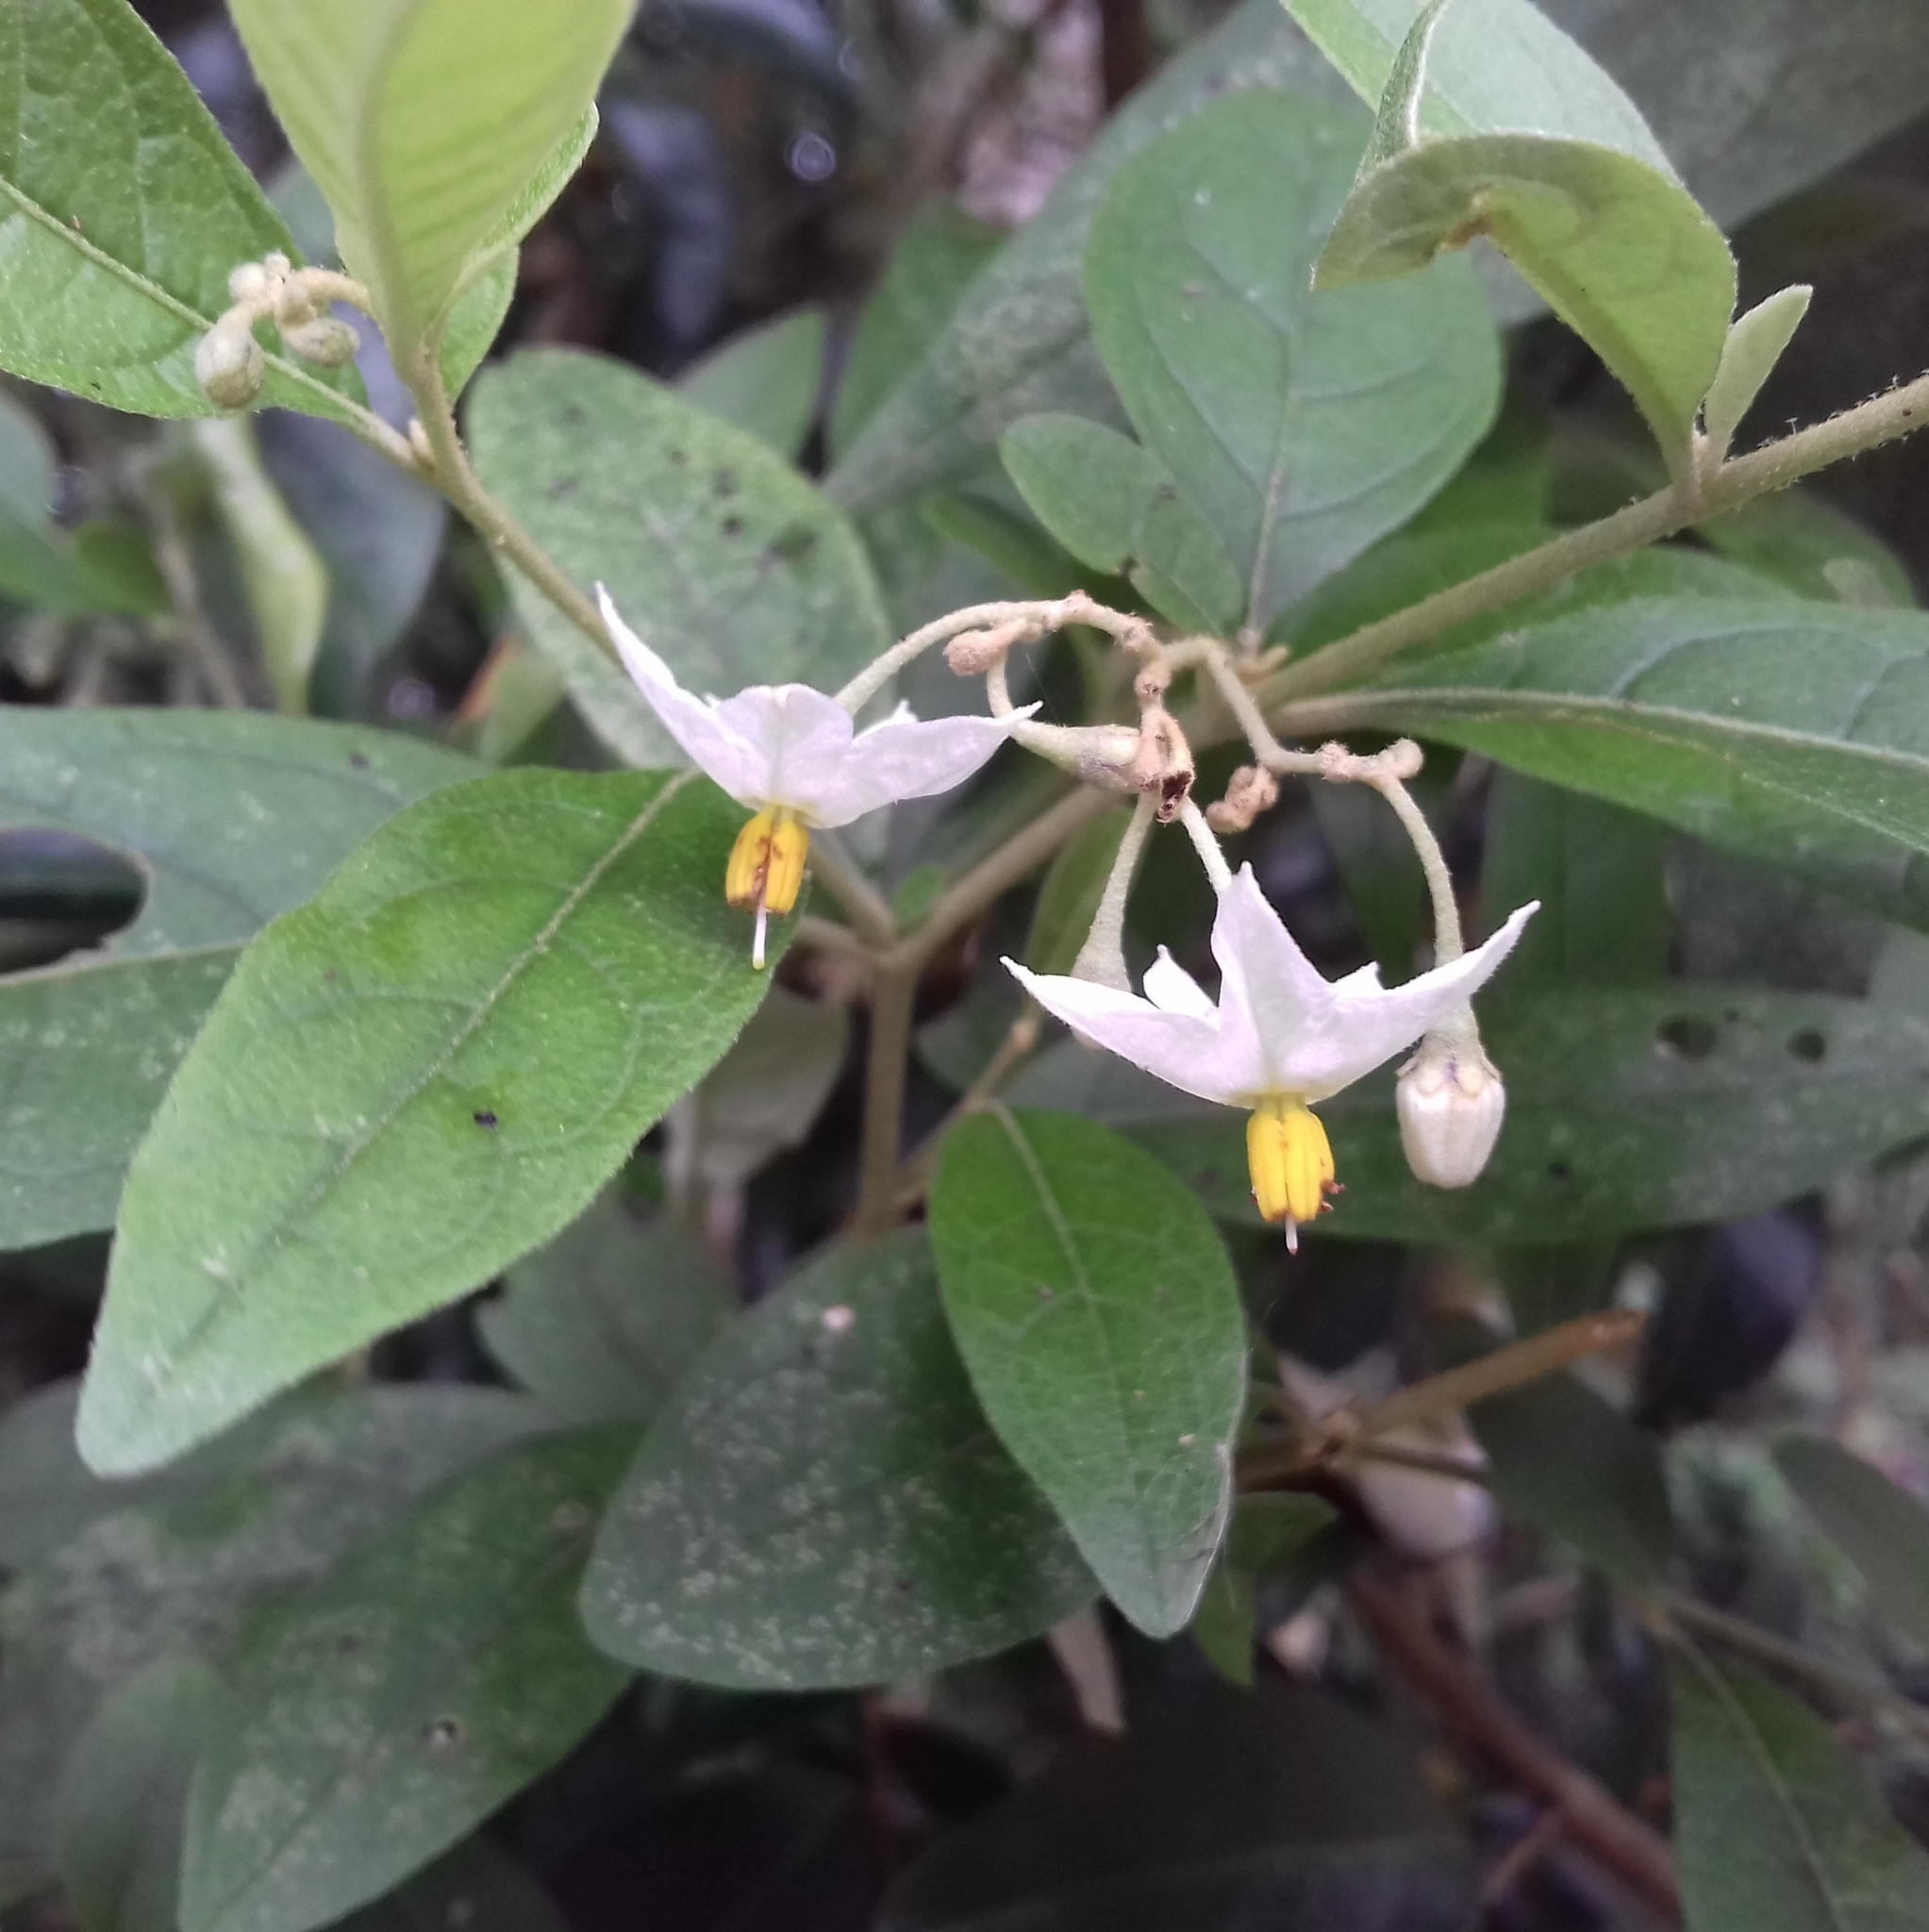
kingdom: Plantae
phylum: Tracheophyta
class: Magnoliopsida
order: Solanales
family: Solanaceae
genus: Solanum
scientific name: Solanum sanctae-catharinae
